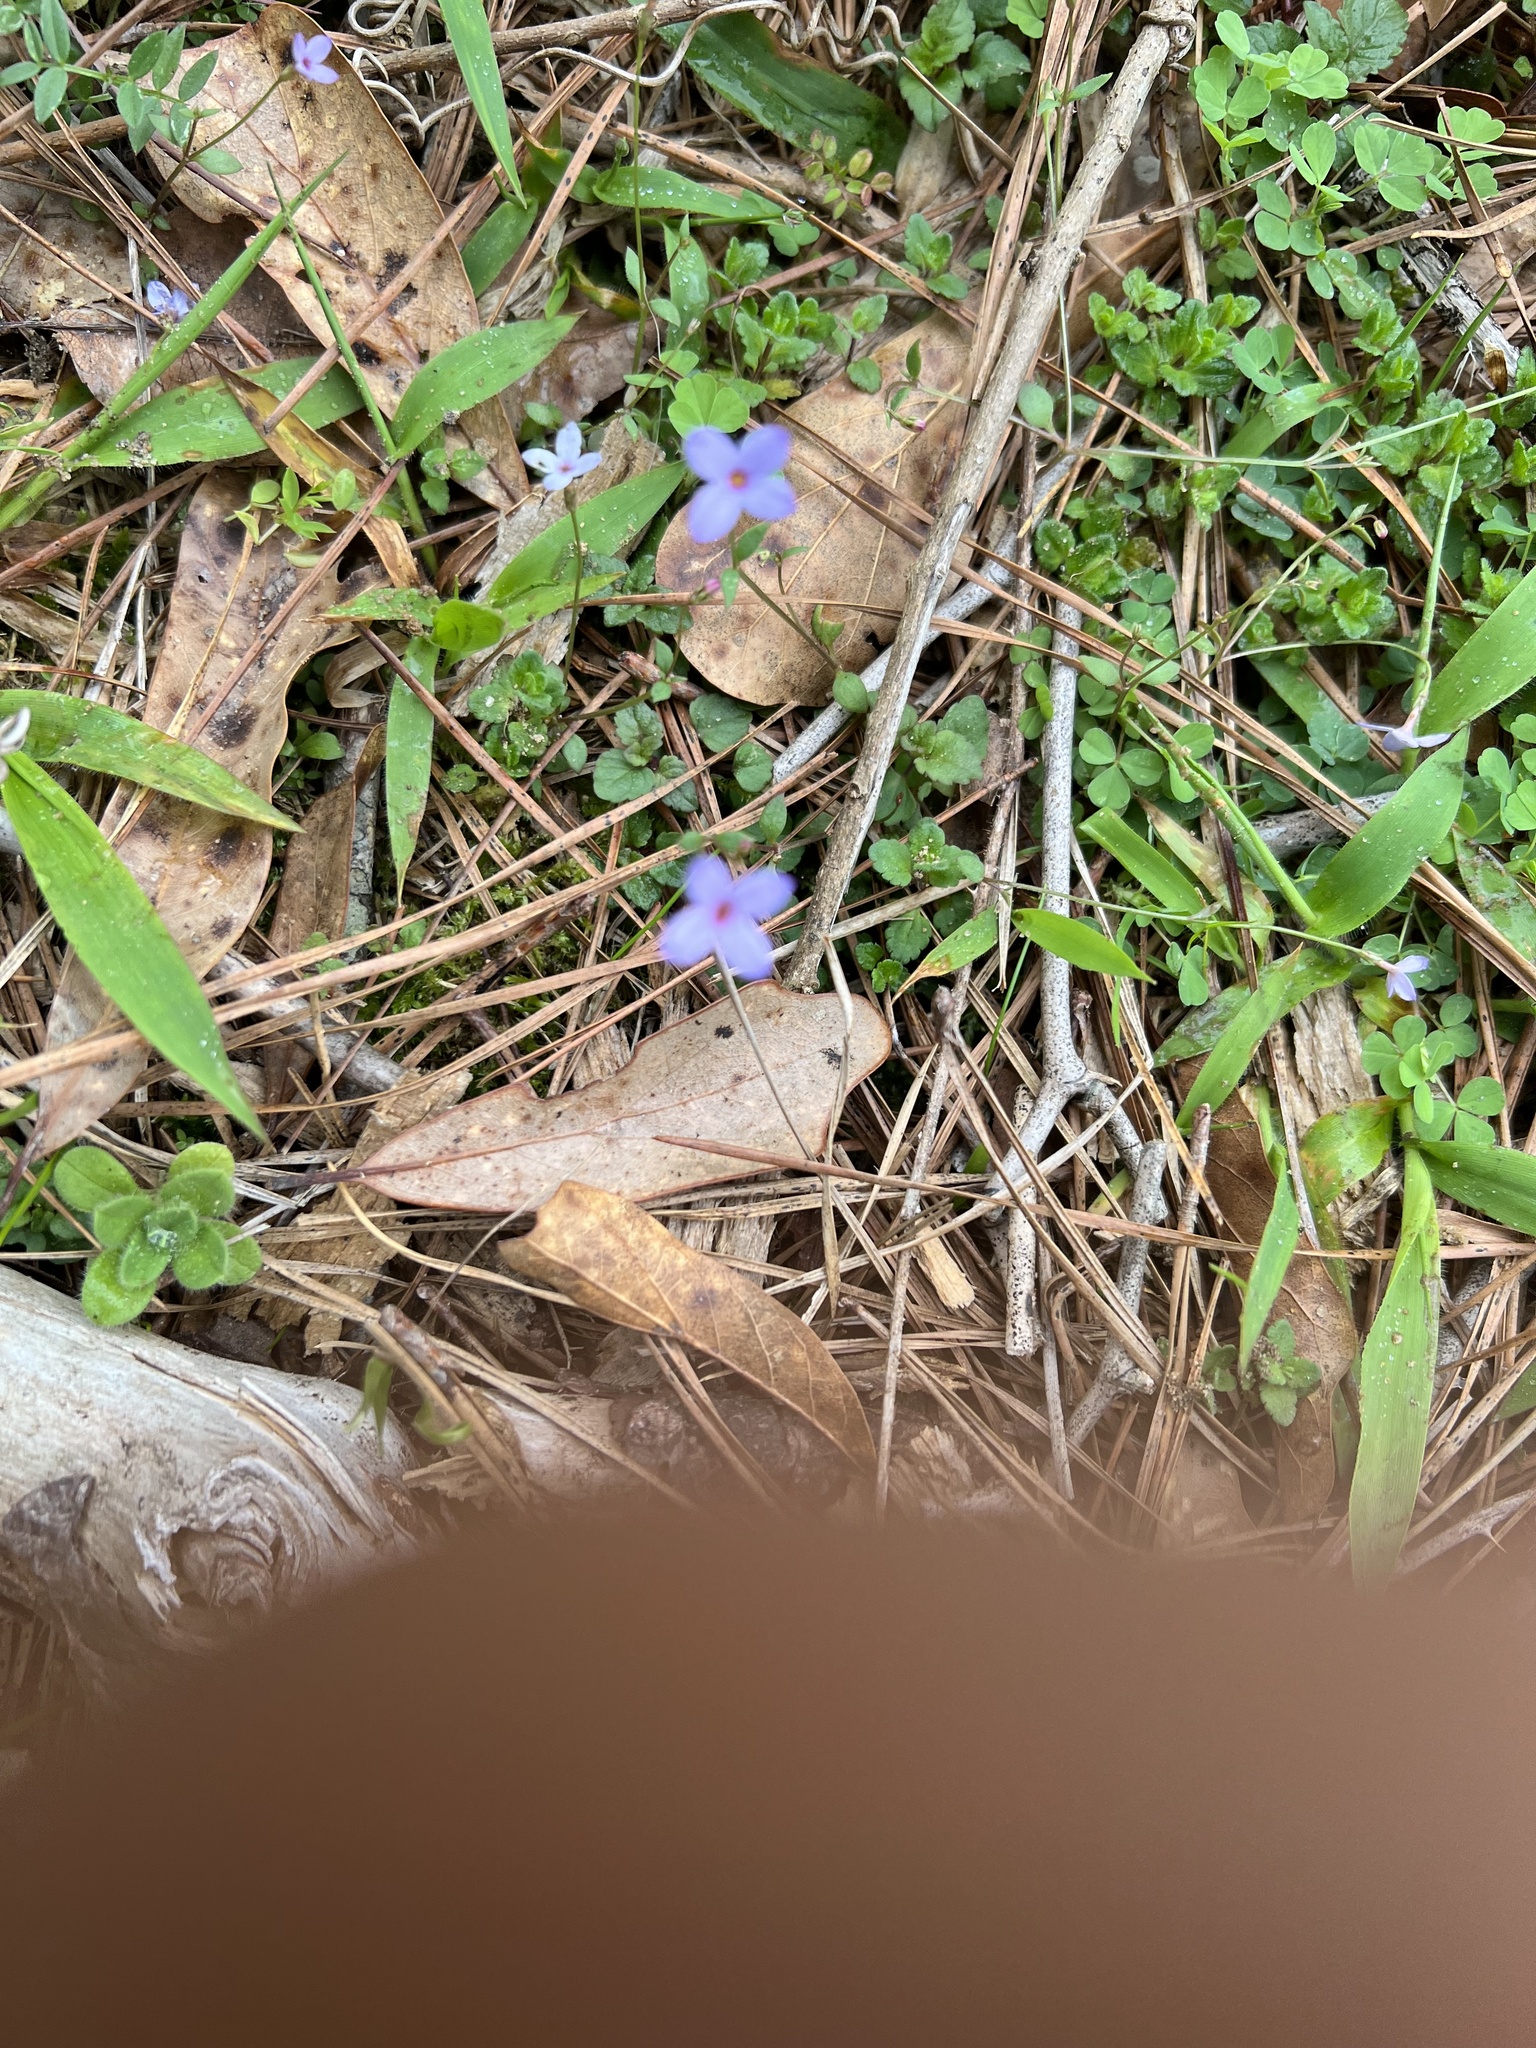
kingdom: Plantae
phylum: Tracheophyta
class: Magnoliopsida
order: Gentianales
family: Rubiaceae
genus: Houstonia
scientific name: Houstonia pusilla
